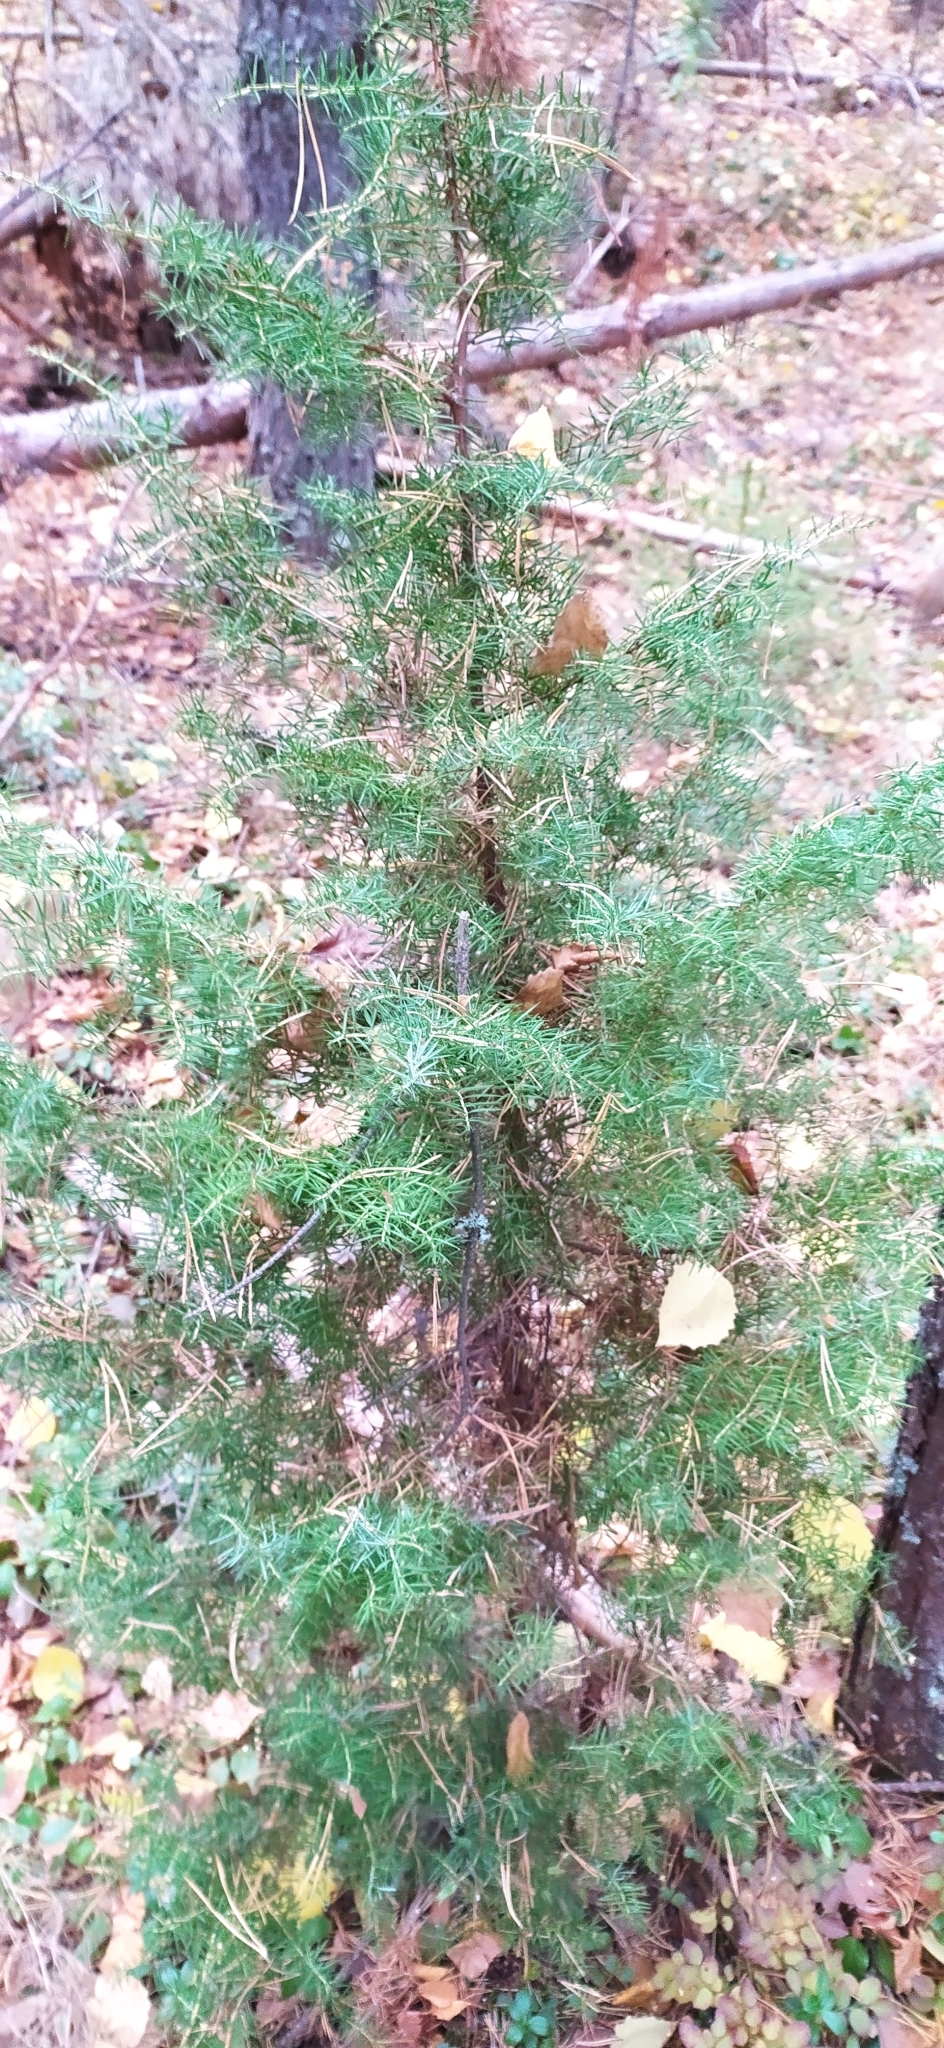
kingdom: Plantae
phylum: Tracheophyta
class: Pinopsida
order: Pinales
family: Cupressaceae
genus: Juniperus
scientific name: Juniperus communis
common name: Common juniper
